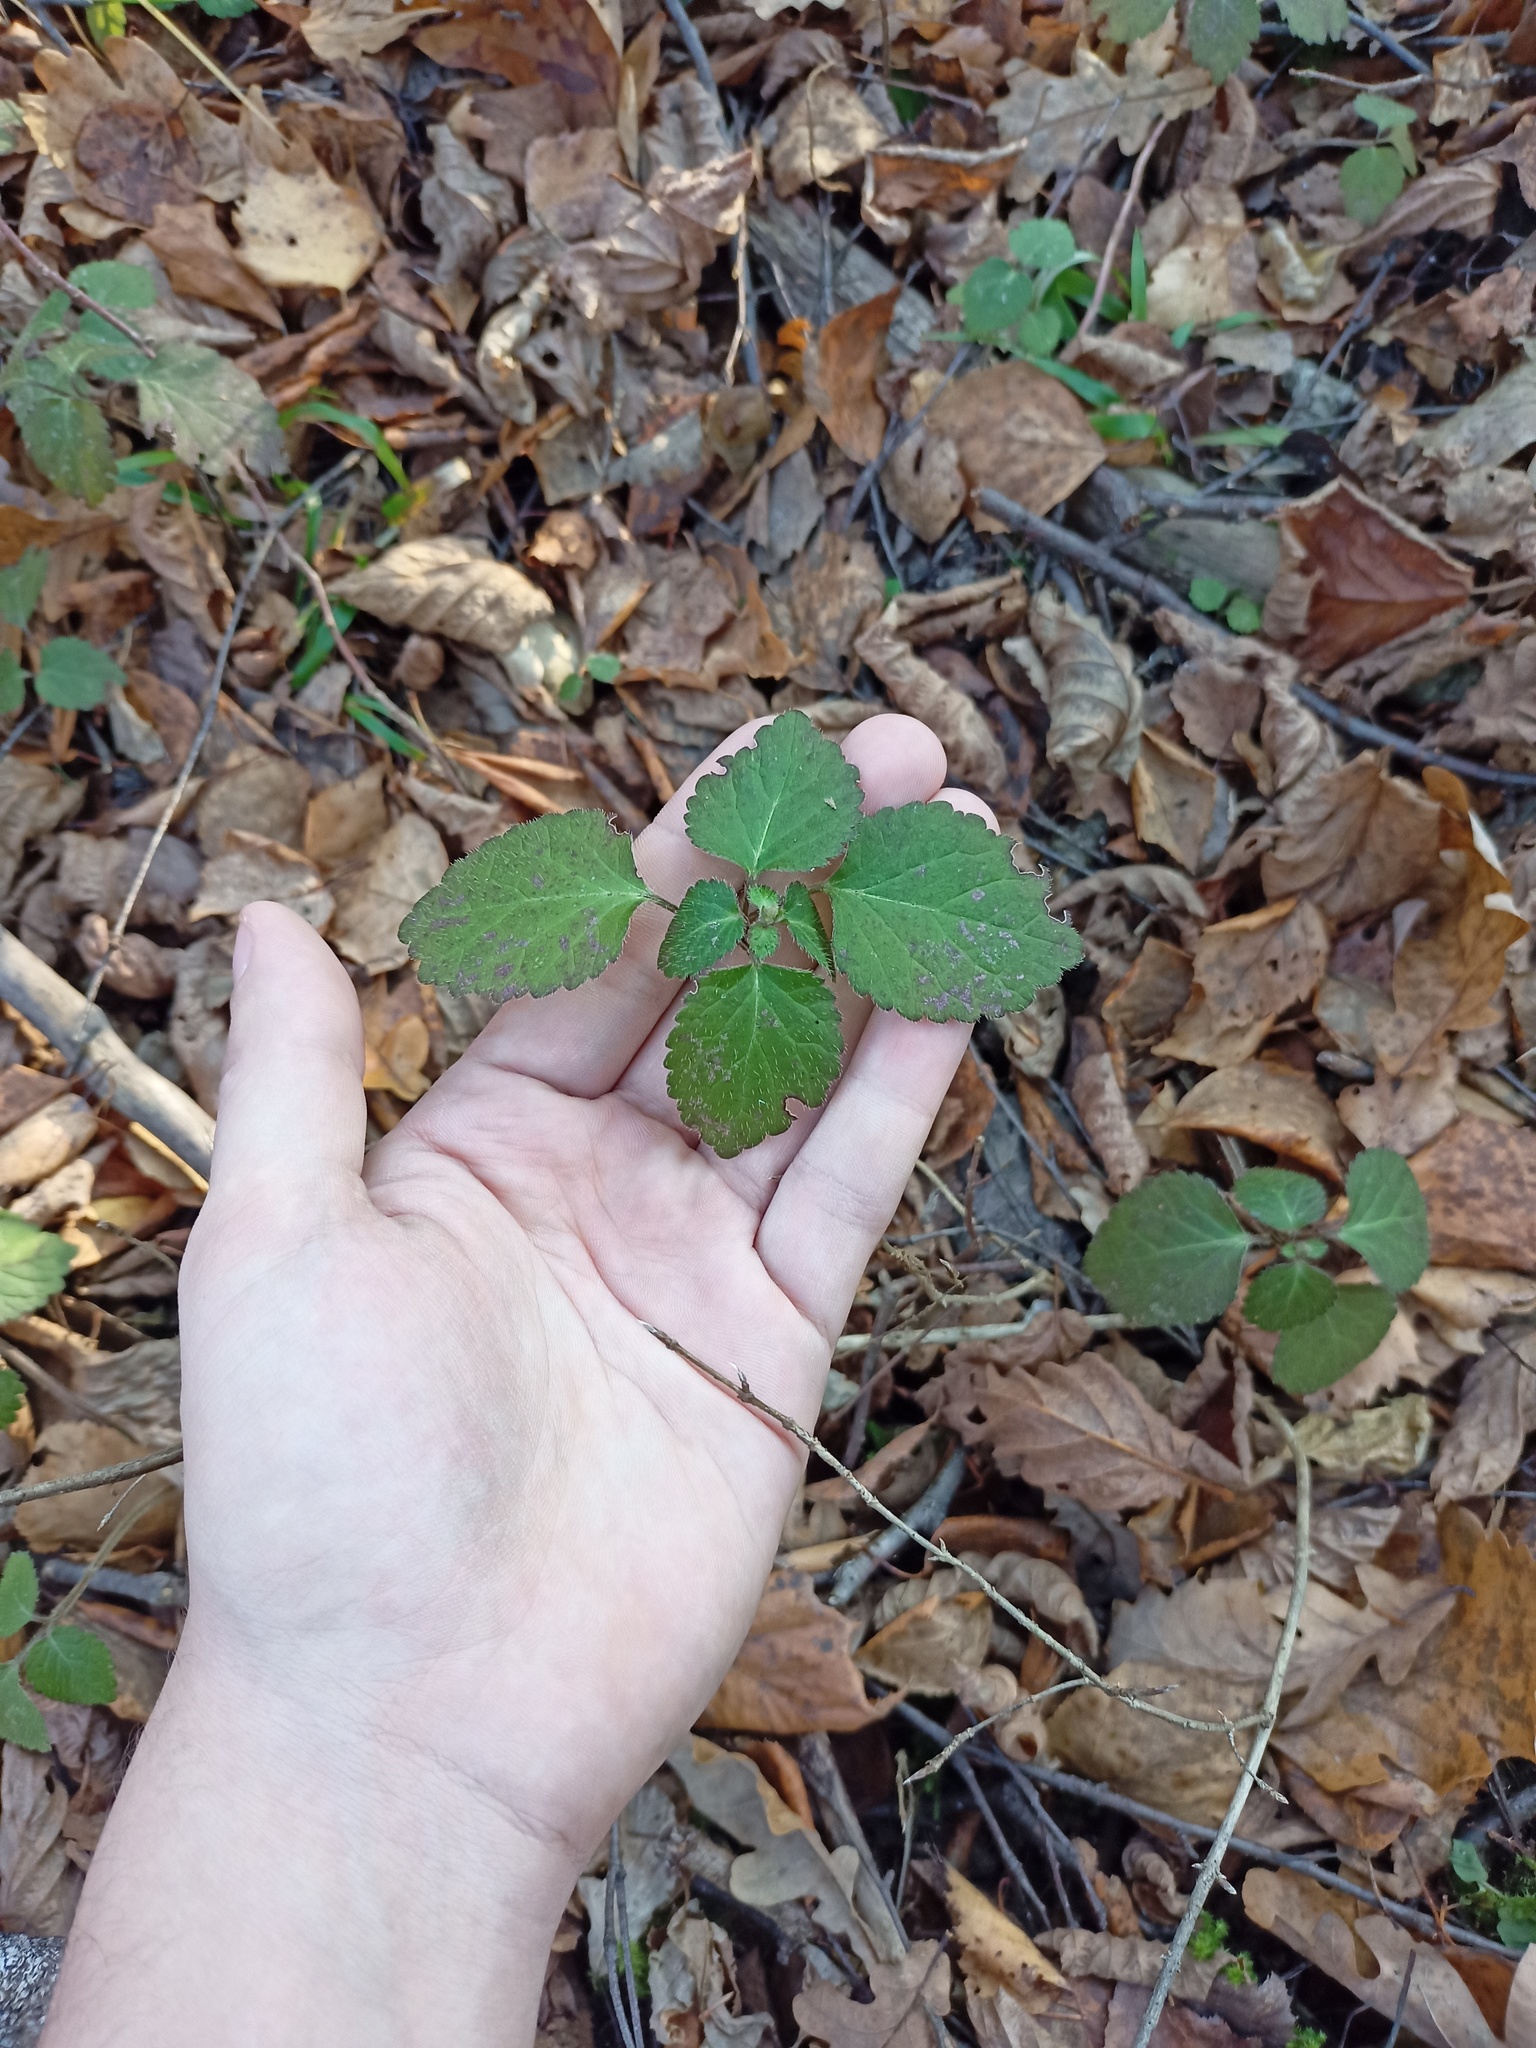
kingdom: Plantae
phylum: Tracheophyta
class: Magnoliopsida
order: Lamiales
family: Lamiaceae
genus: Lamium
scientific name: Lamium galeobdolon
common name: Yellow archangel
